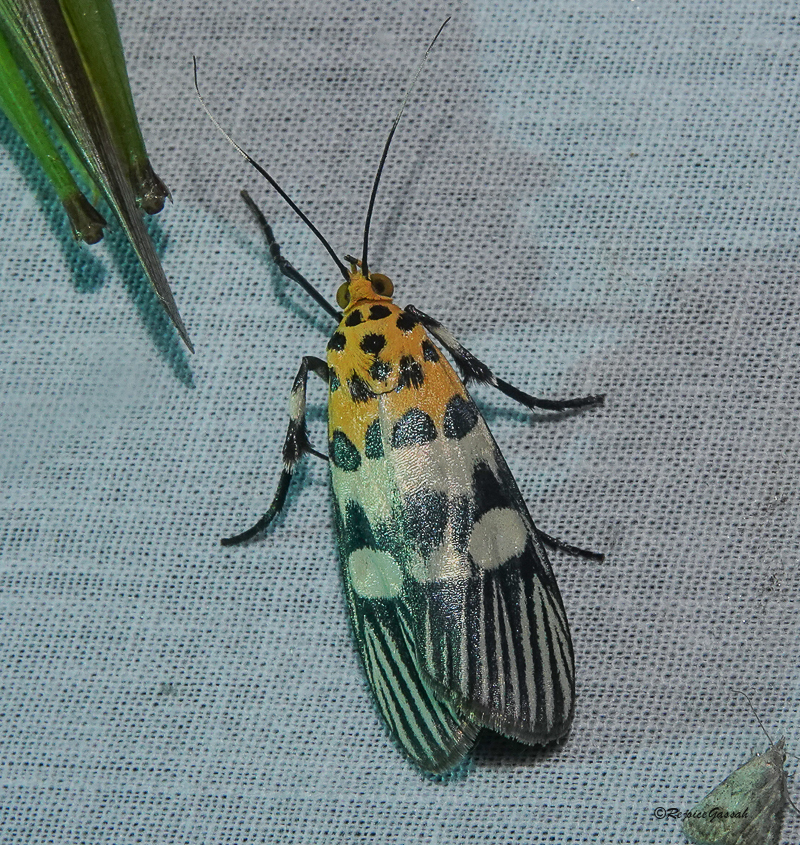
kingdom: Animalia
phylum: Arthropoda
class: Insecta
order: Lepidoptera
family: Pyralidae
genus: Vitessa
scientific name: Vitessa suradeva
